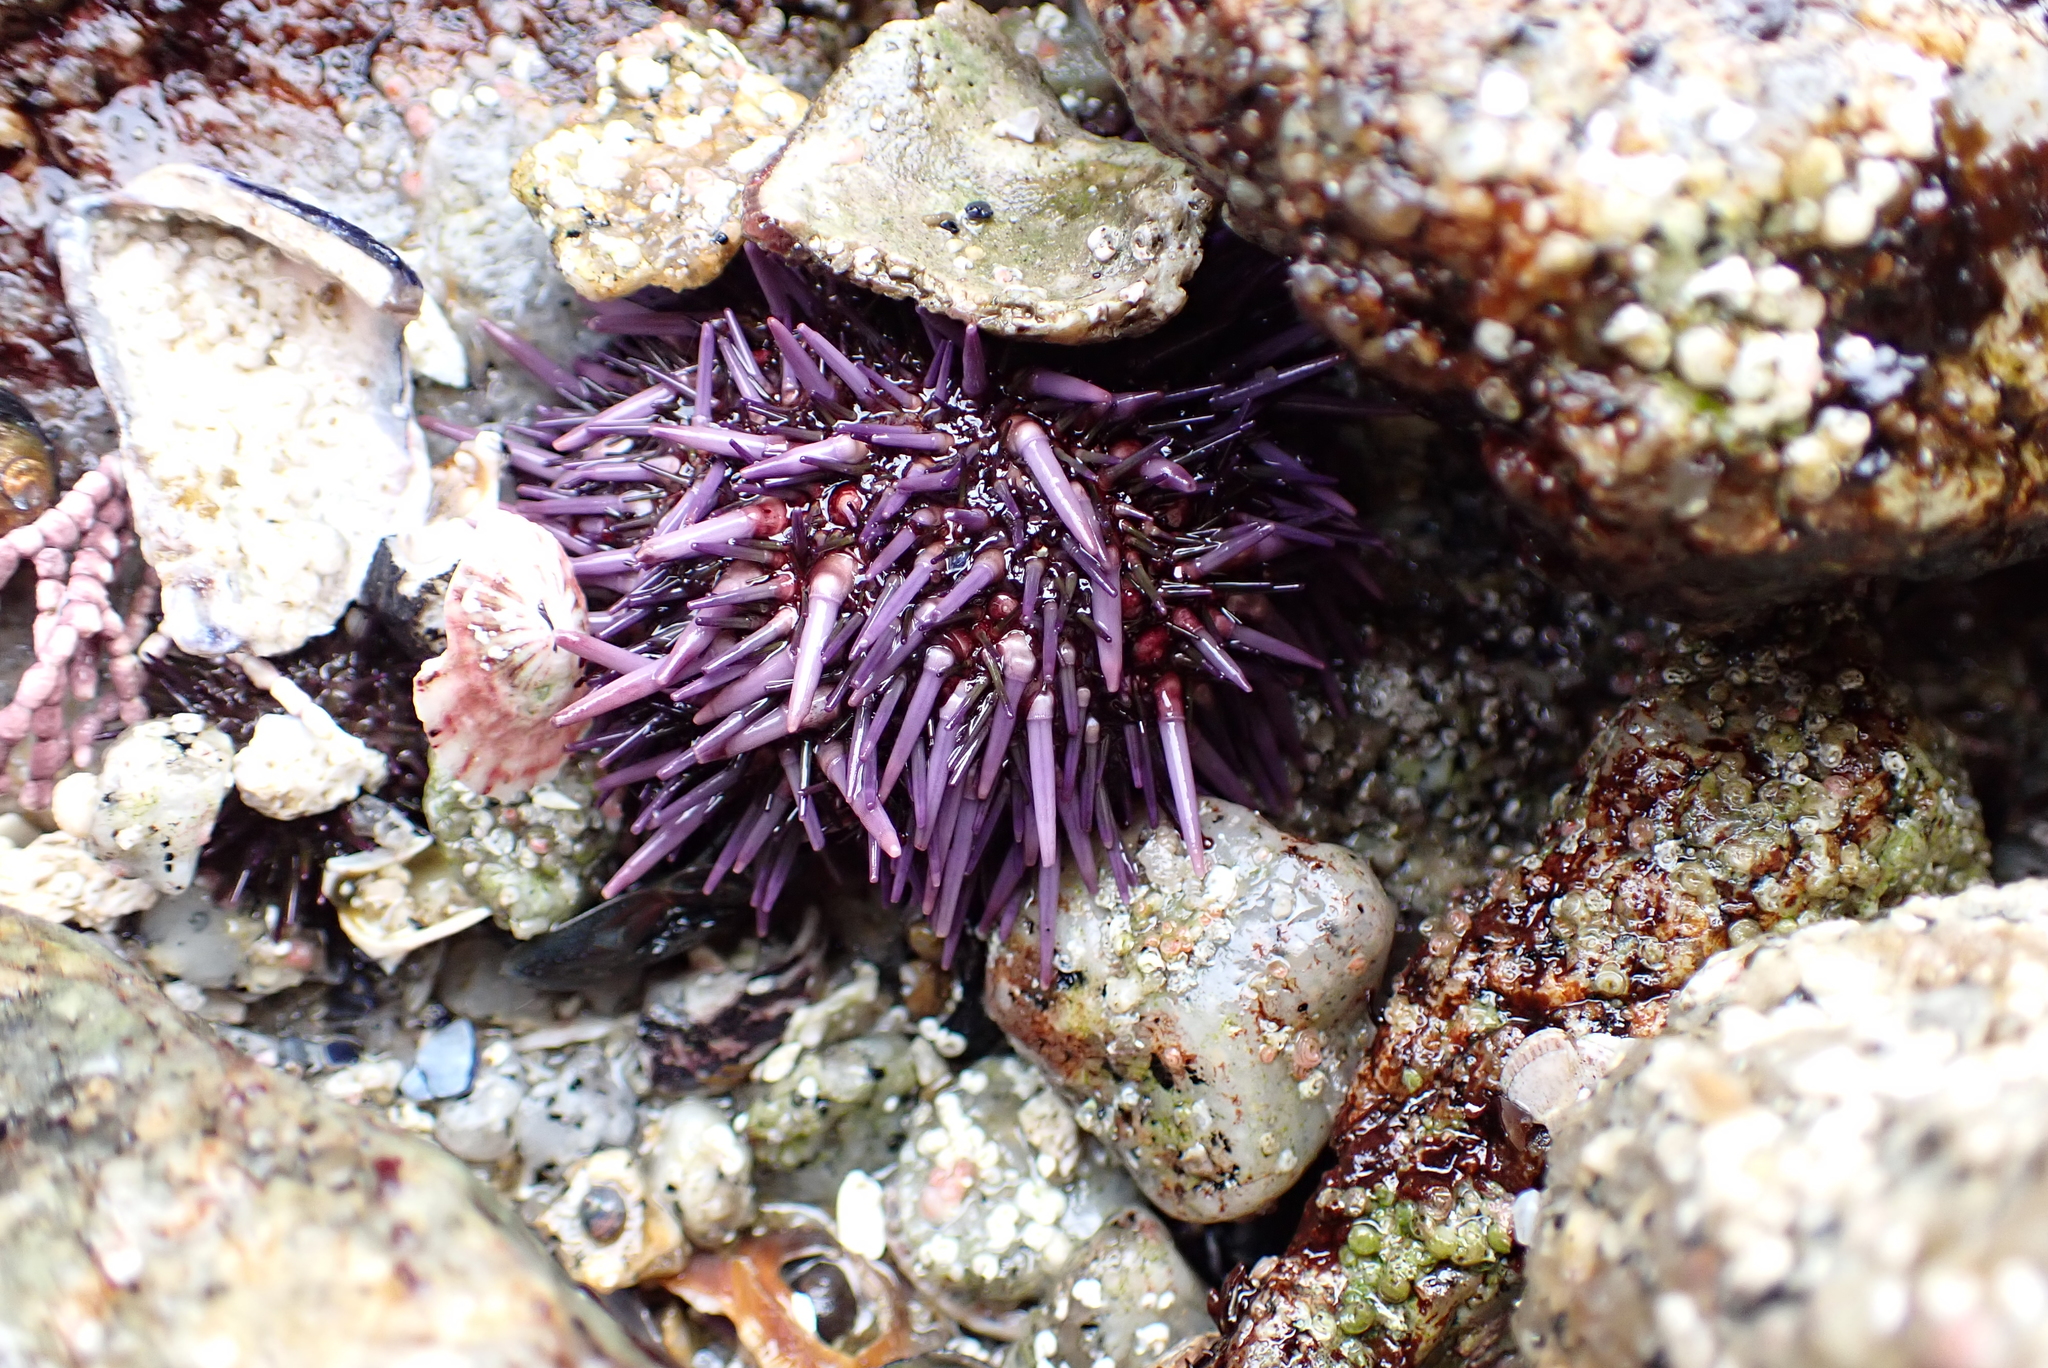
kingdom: Animalia
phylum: Echinodermata
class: Echinoidea
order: Camarodonta
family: Strongylocentrotidae
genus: Strongylocentrotus
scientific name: Strongylocentrotus purpuratus
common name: Purple sea urchin
